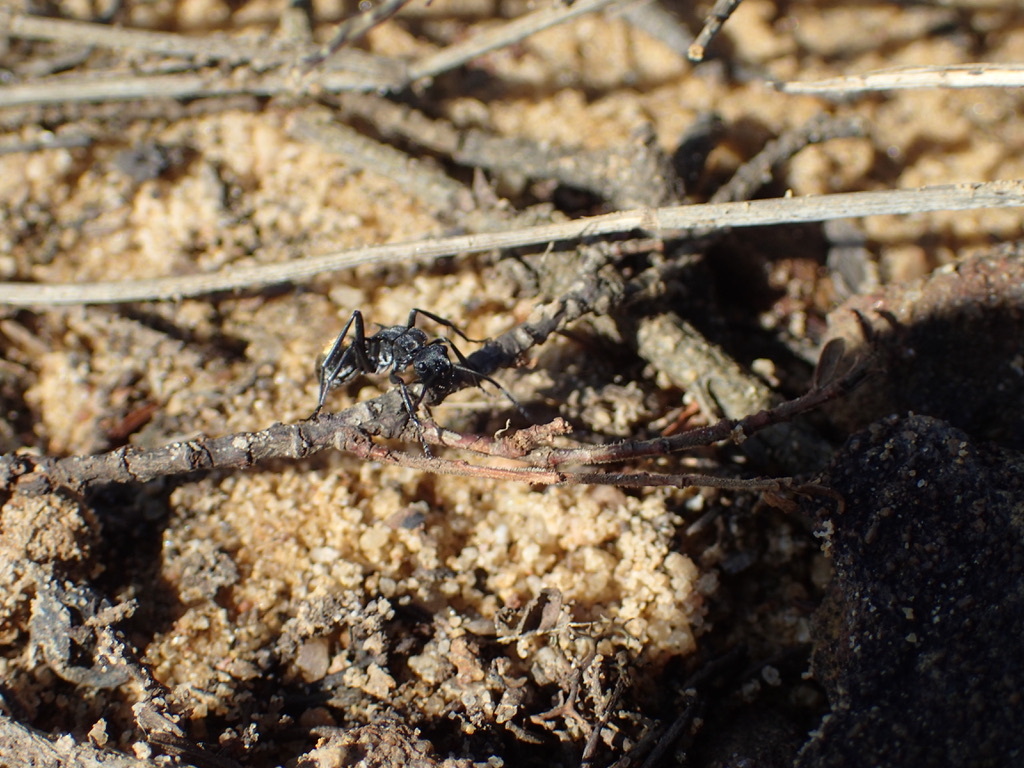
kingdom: Animalia
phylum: Arthropoda
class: Insecta
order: Hymenoptera
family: Formicidae
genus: Polyrhachis
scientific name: Polyrhachis ammon
